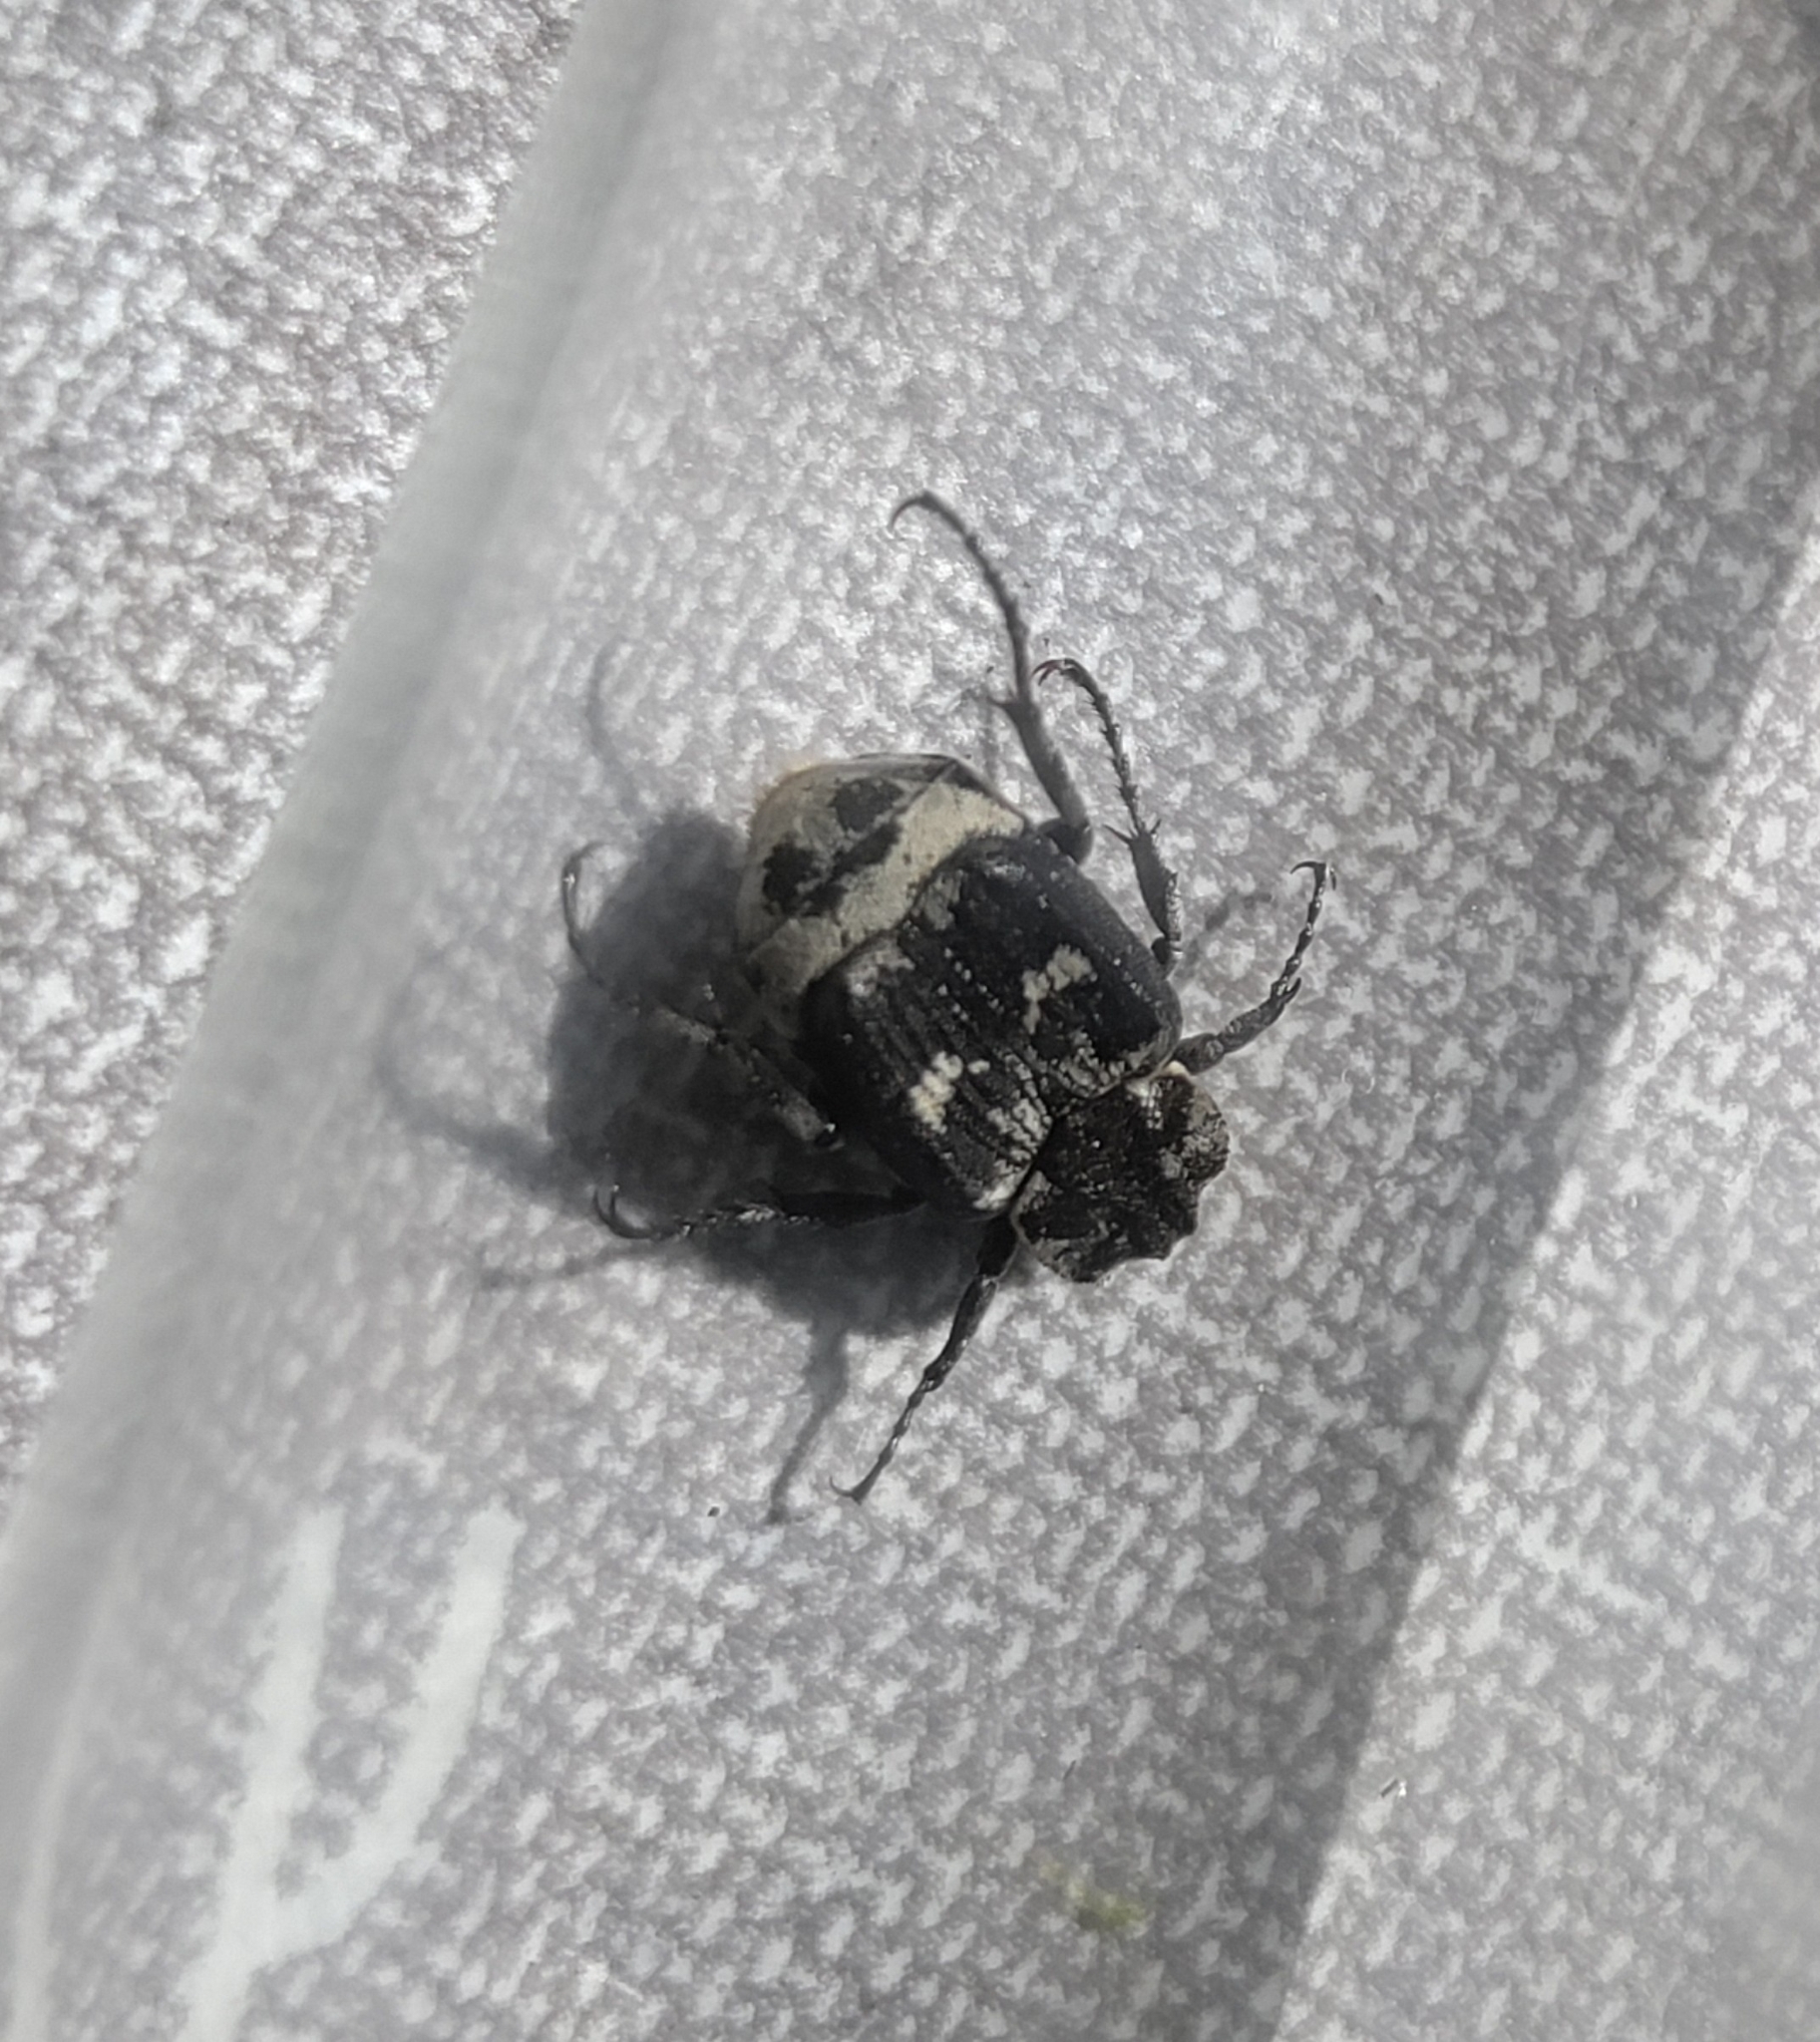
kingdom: Animalia
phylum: Arthropoda
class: Insecta
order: Coleoptera
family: Scarabaeidae
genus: Valgus
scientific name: Valgus hemipterus
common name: Bug flower chafer
